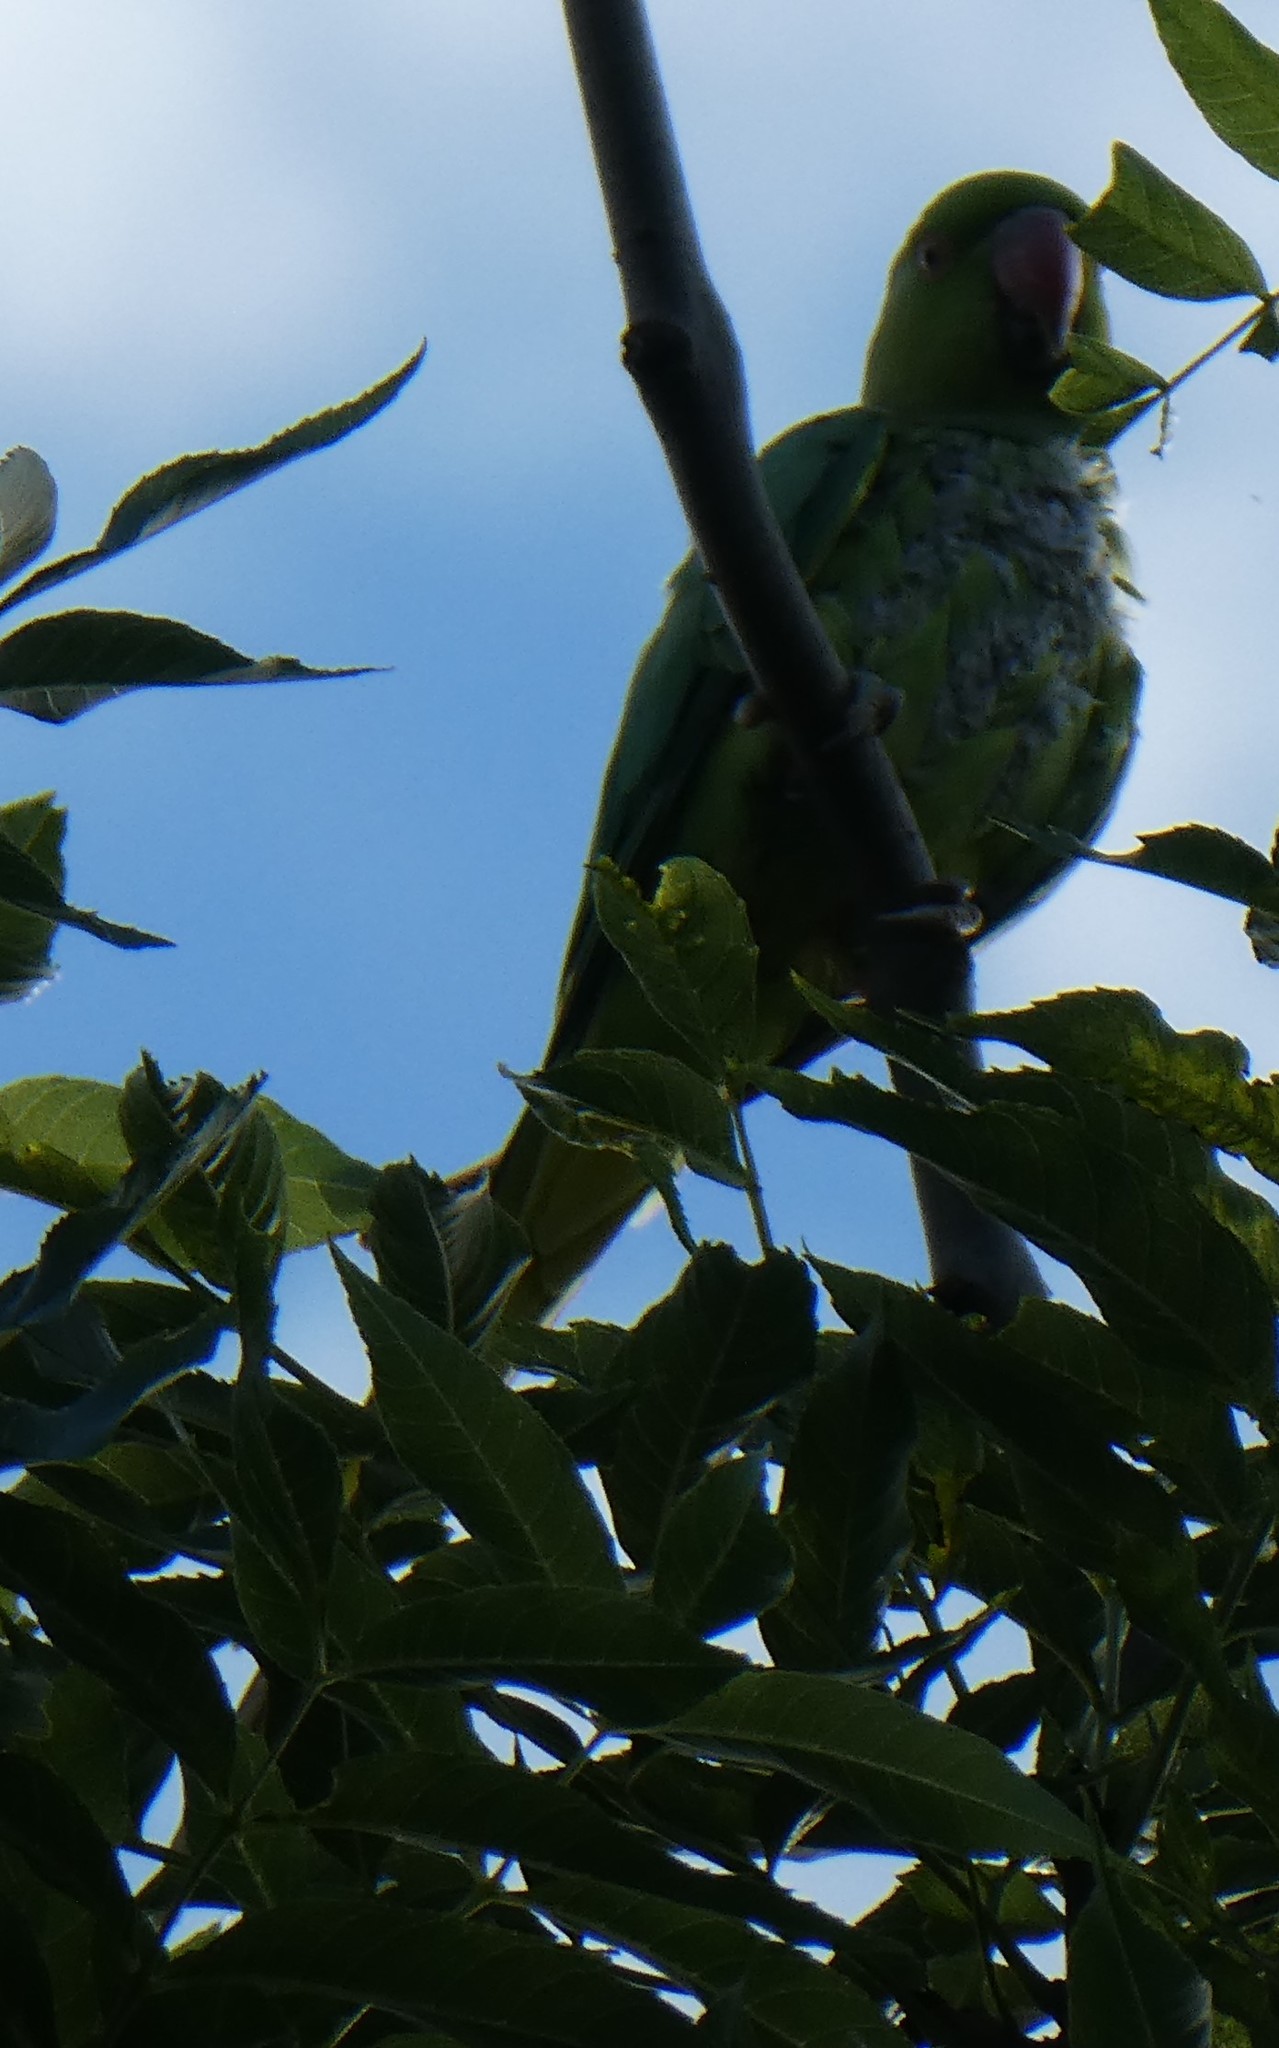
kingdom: Animalia
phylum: Chordata
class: Aves
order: Psittaciformes
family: Psittacidae
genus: Psittacula
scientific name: Psittacula krameri
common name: Rose-ringed parakeet
